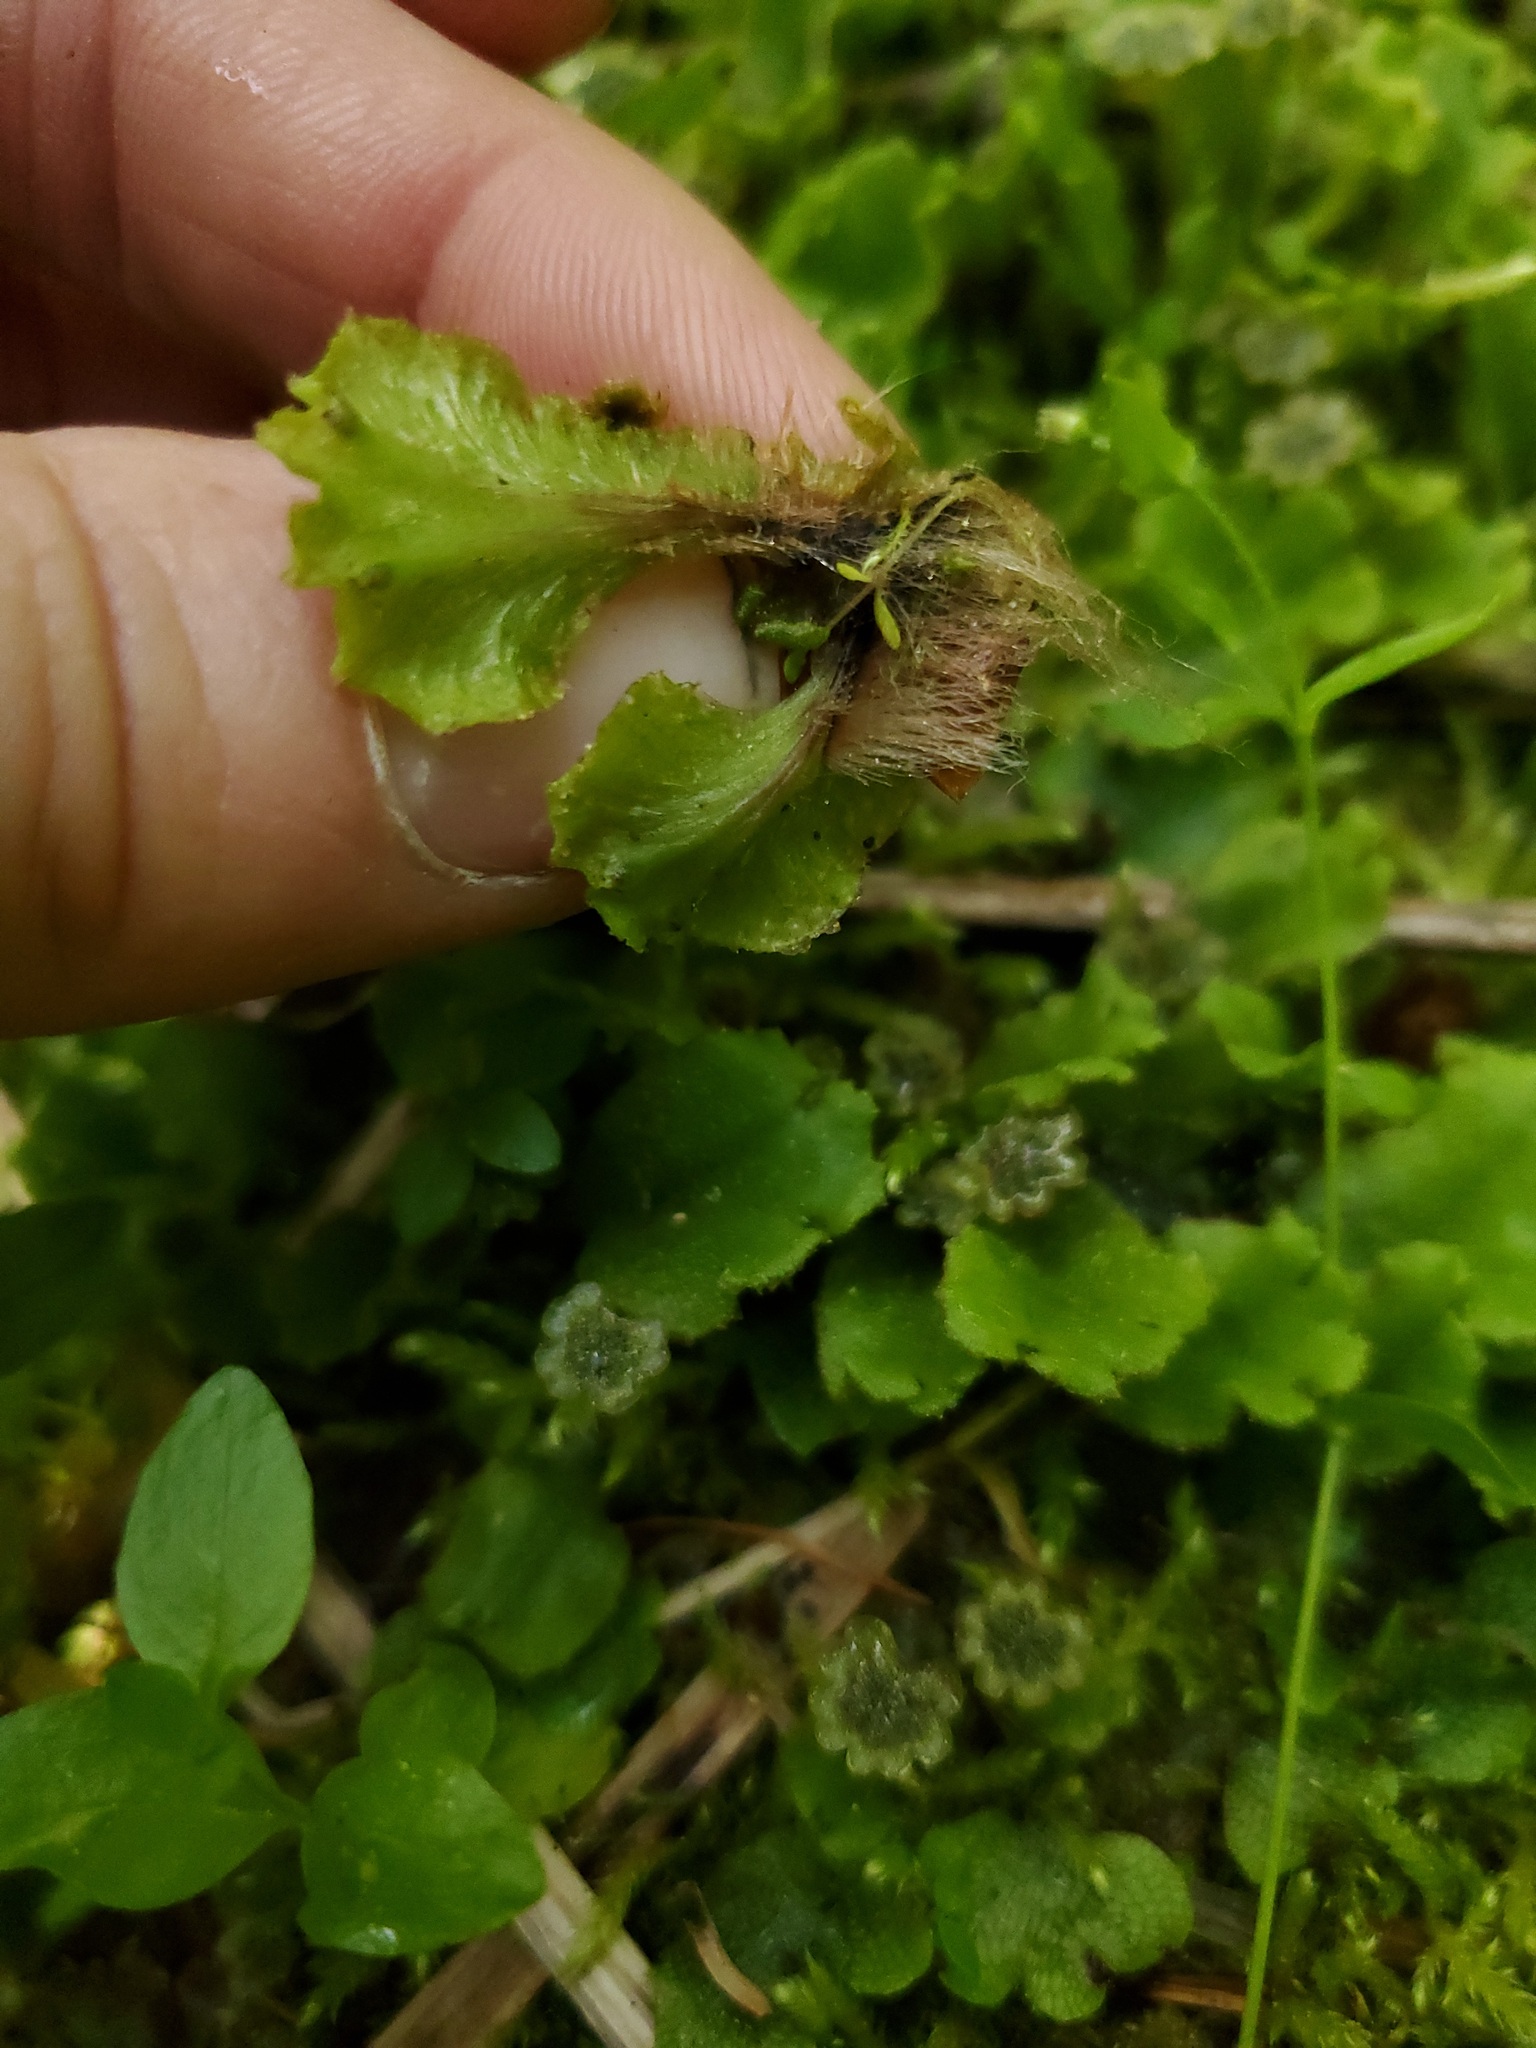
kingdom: Plantae
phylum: Marchantiophyta
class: Marchantiopsida
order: Marchantiales
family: Marchantiaceae
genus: Marchantia
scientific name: Marchantia polymorpha
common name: Common liverwort
